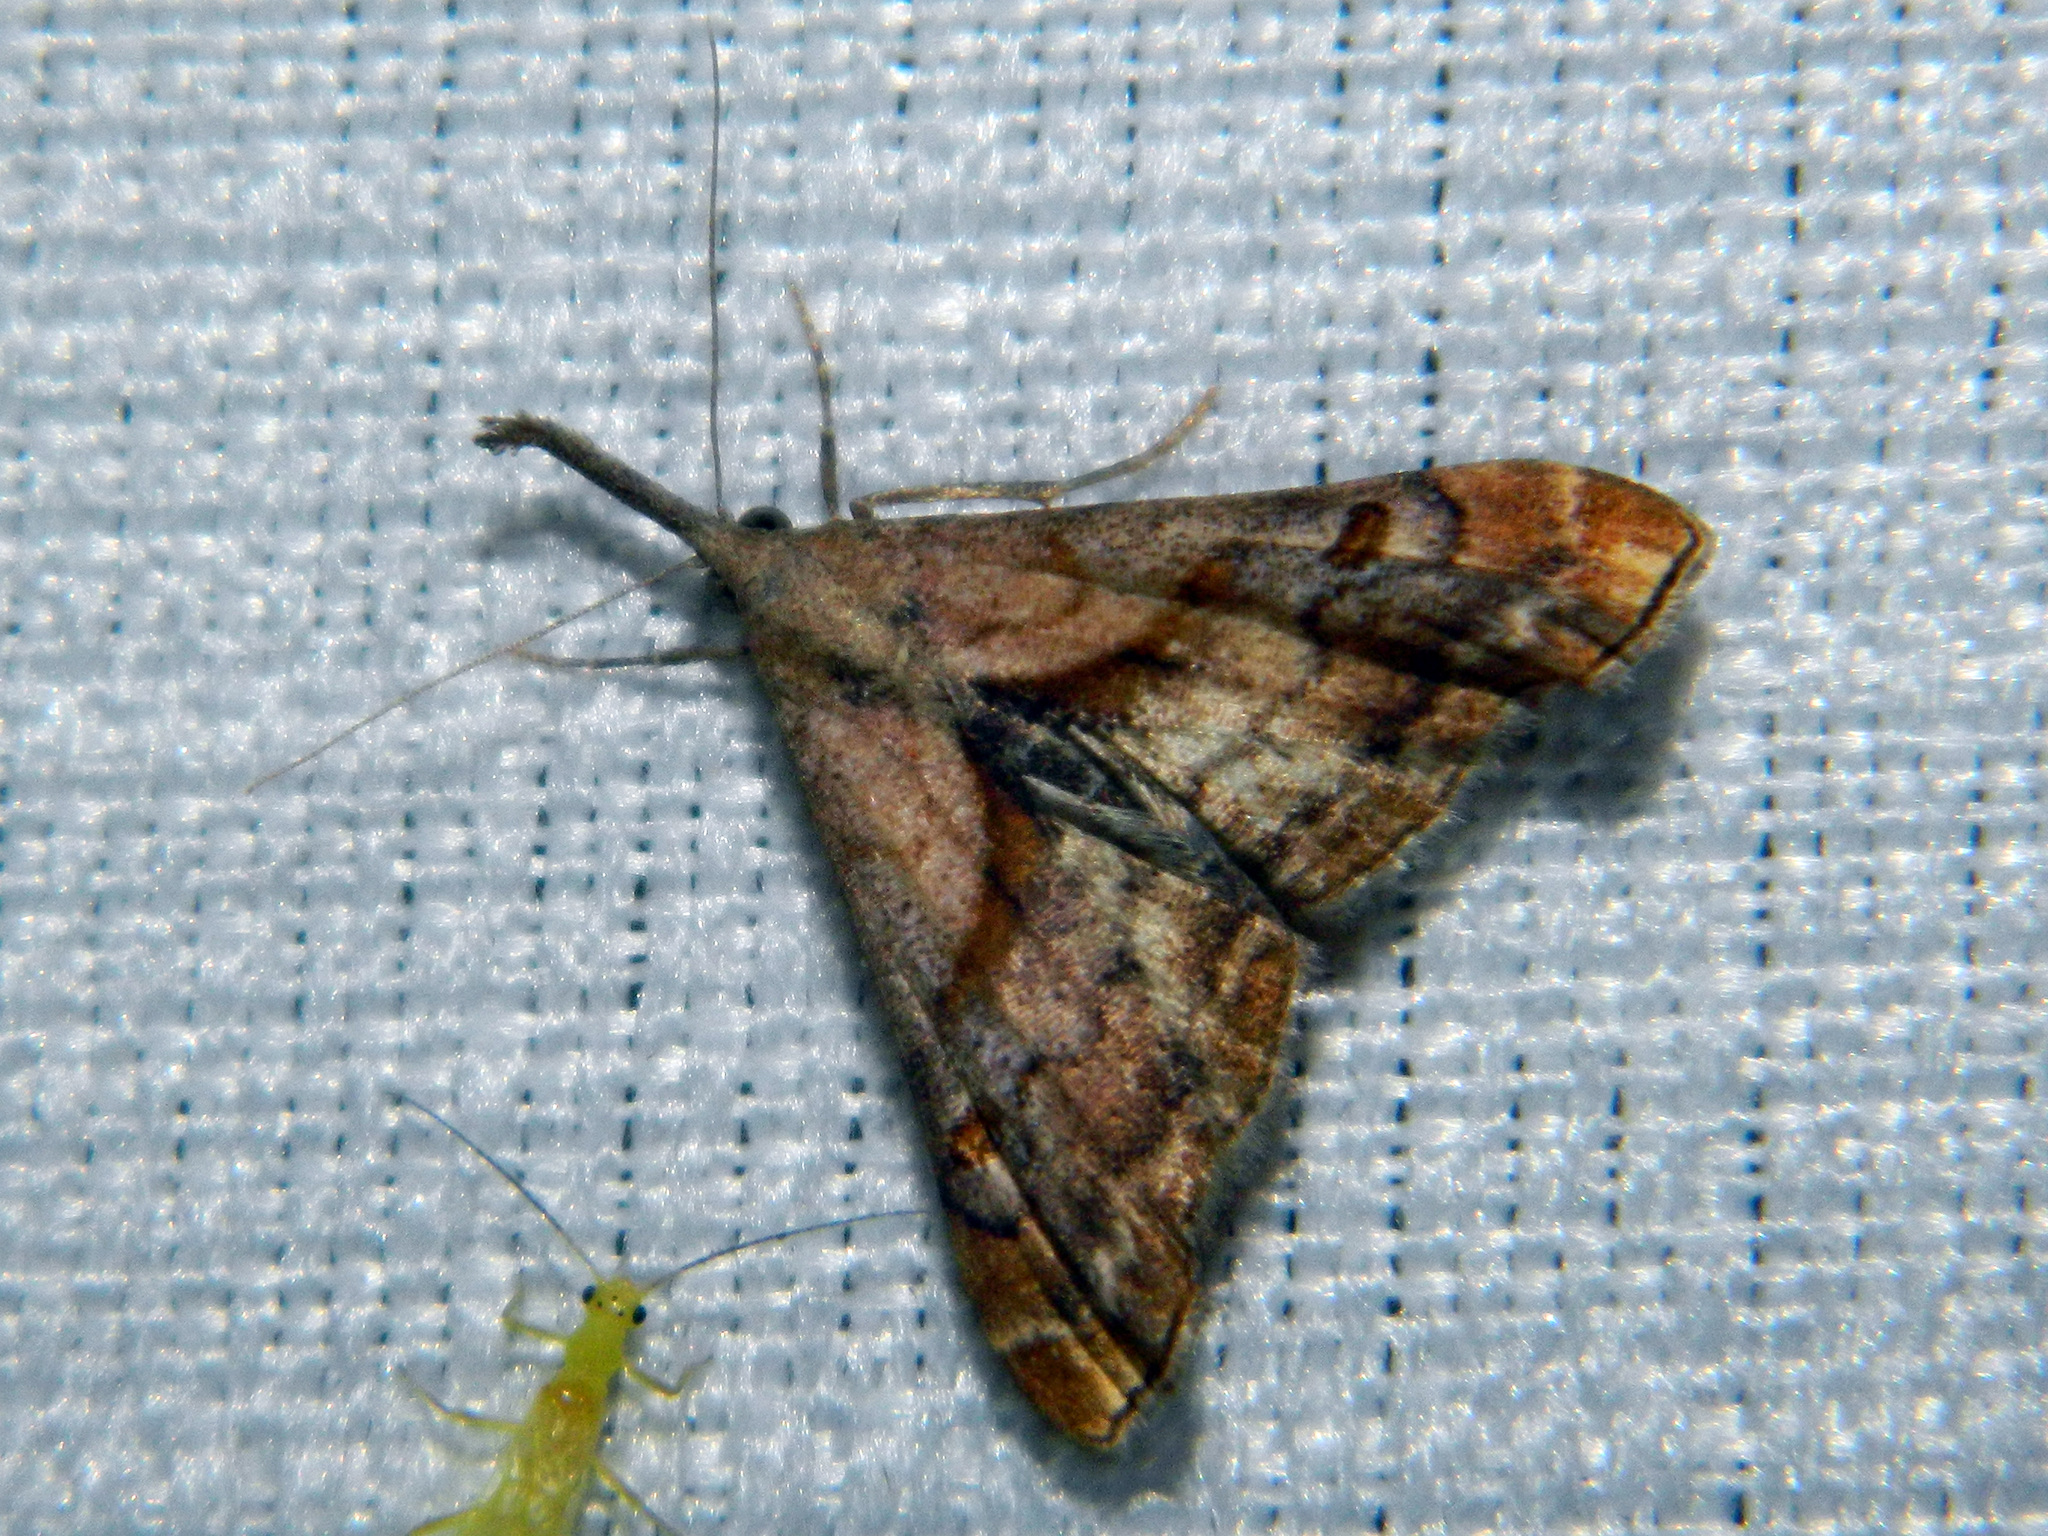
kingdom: Animalia
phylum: Arthropoda
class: Insecta
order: Lepidoptera
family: Erebidae
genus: Palthis
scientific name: Palthis angulalis
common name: Dark-spotted palthis moth
